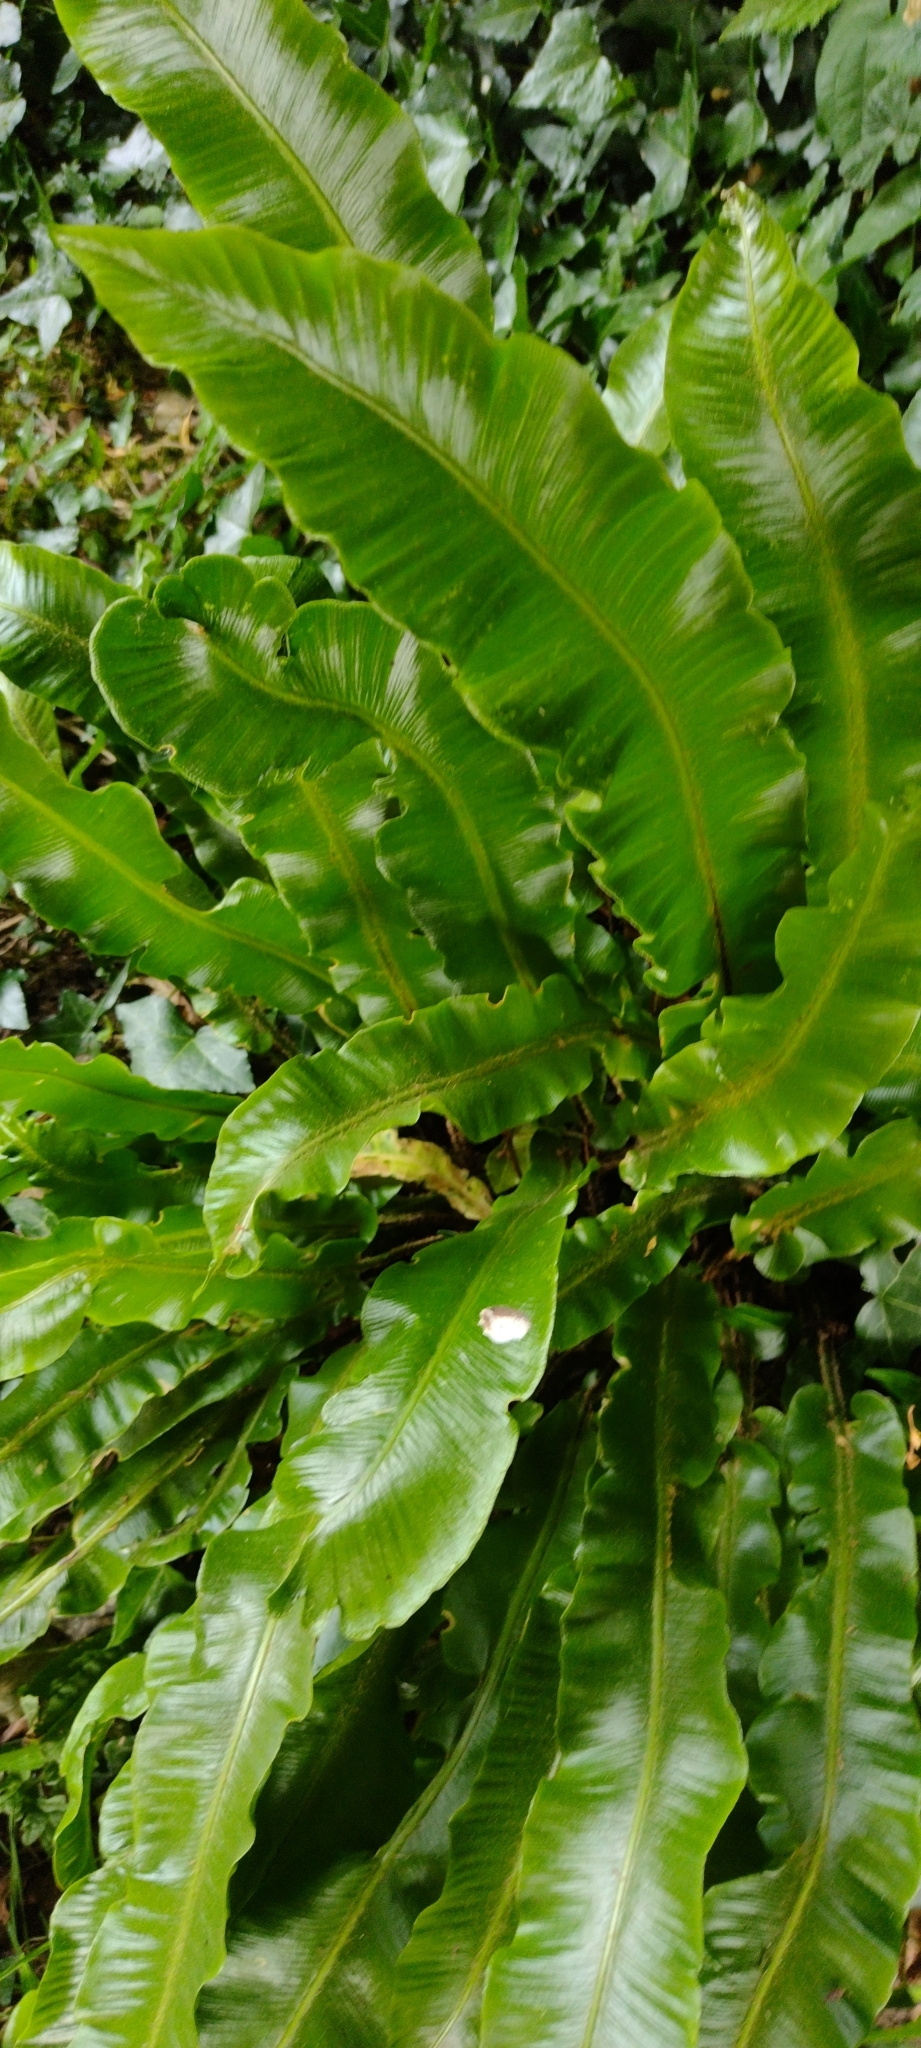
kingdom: Plantae
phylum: Tracheophyta
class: Polypodiopsida
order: Polypodiales
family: Aspleniaceae
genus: Asplenium
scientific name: Asplenium scolopendrium
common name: Hart's-tongue fern
